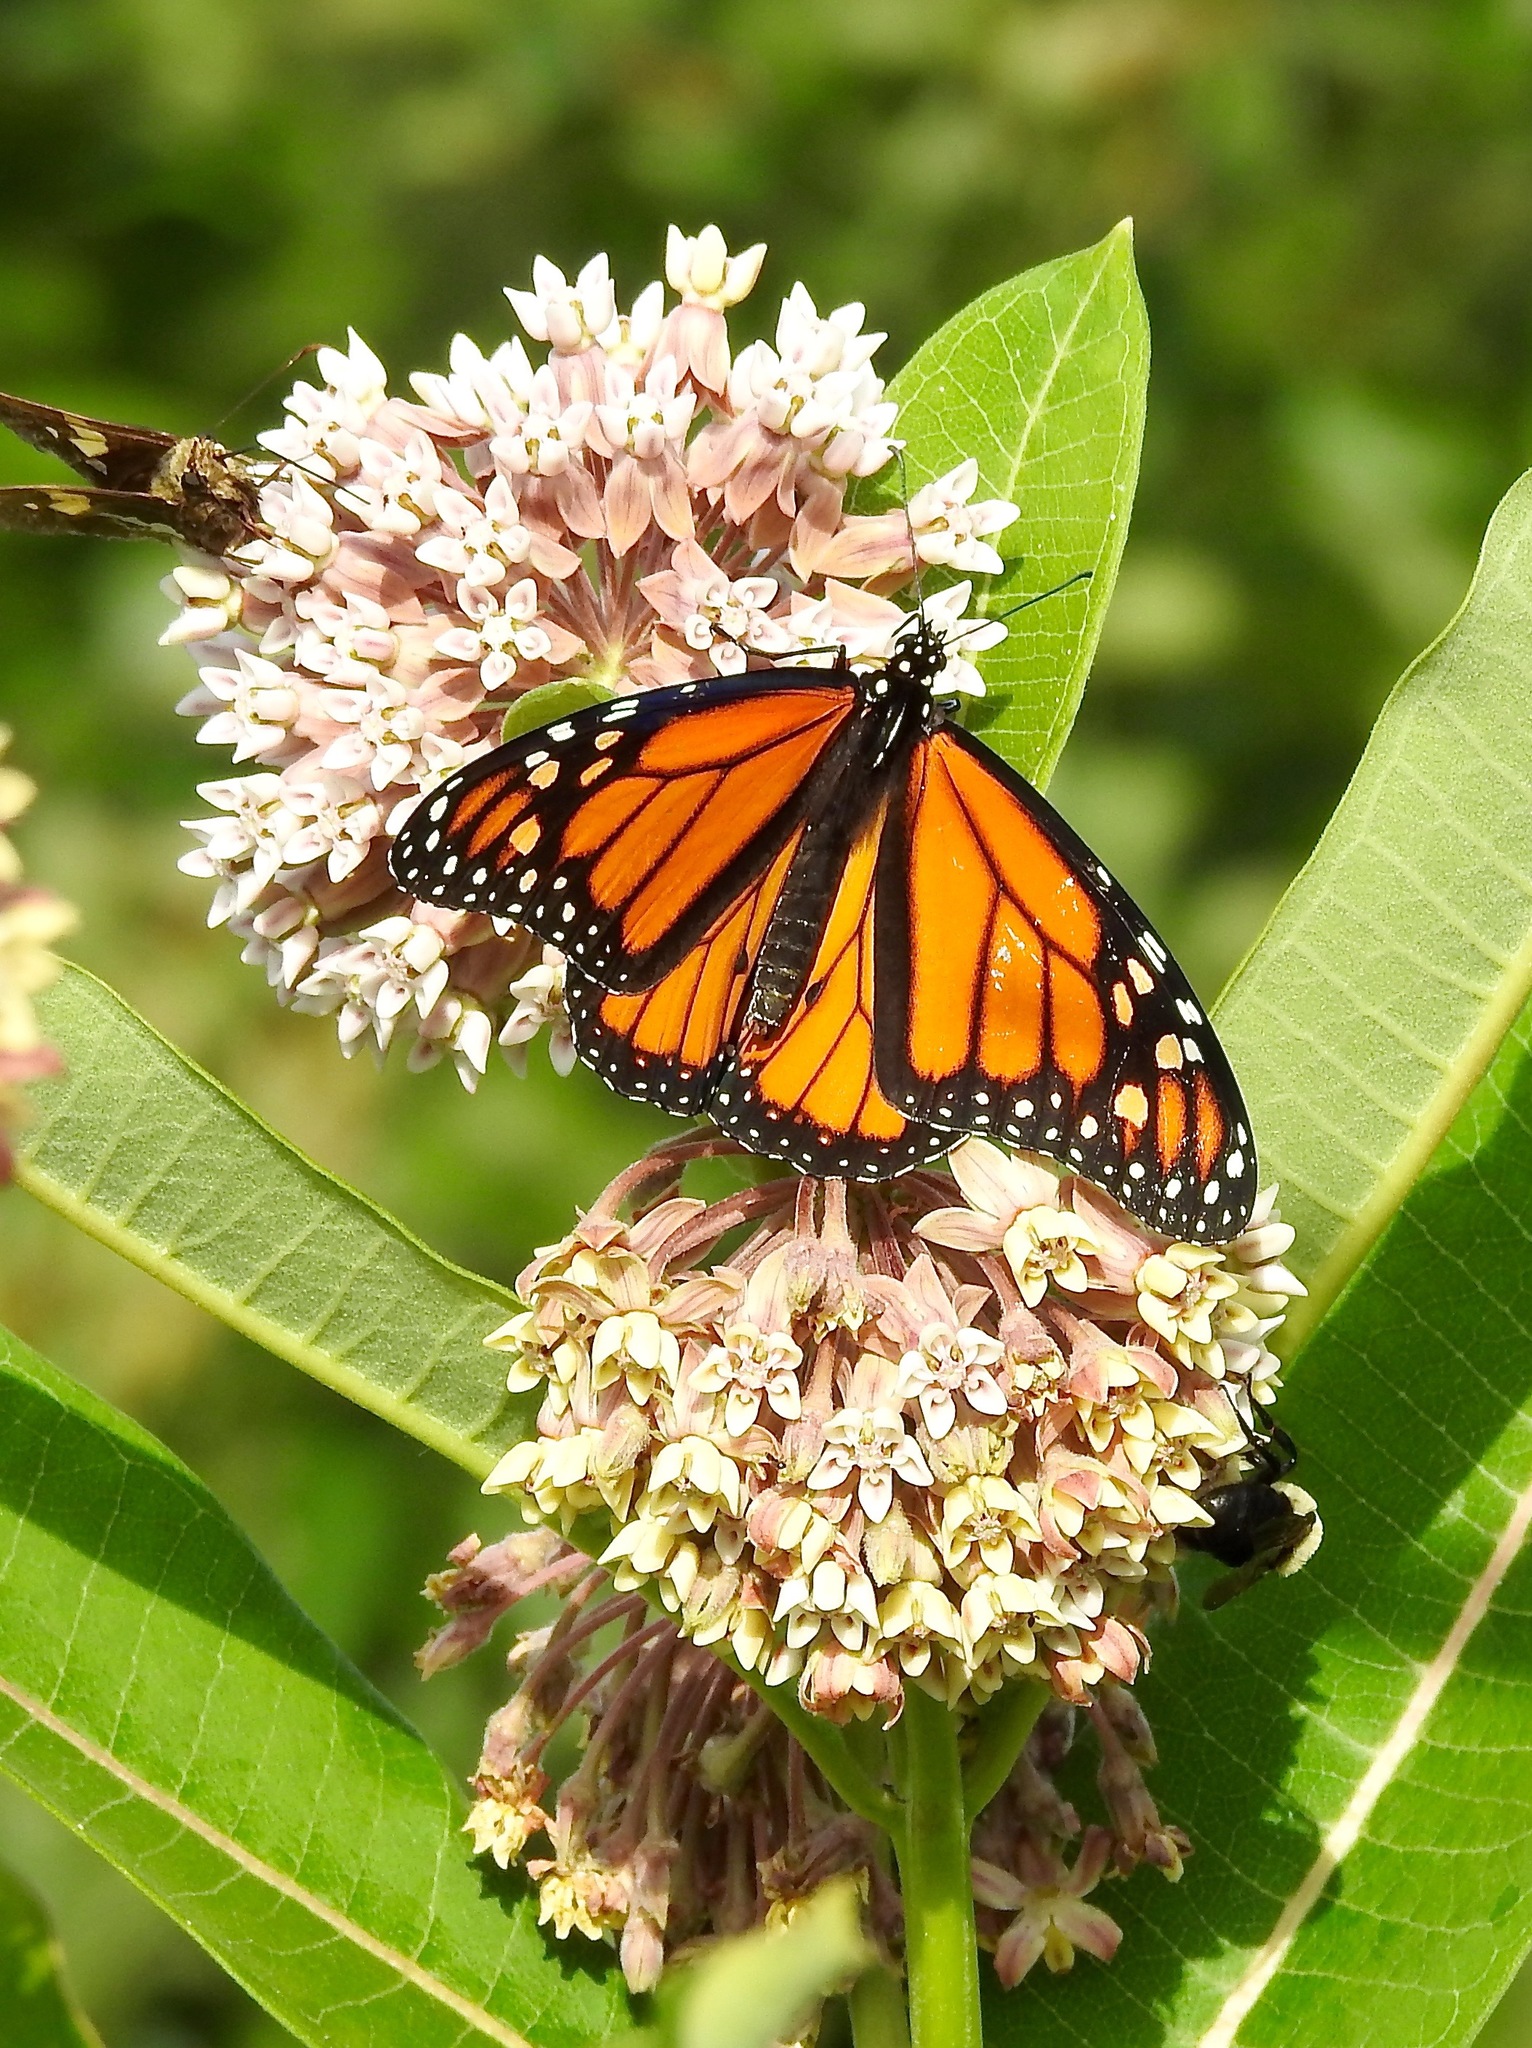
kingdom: Animalia
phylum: Arthropoda
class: Insecta
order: Lepidoptera
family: Nymphalidae
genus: Danaus
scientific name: Danaus plexippus
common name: Monarch
